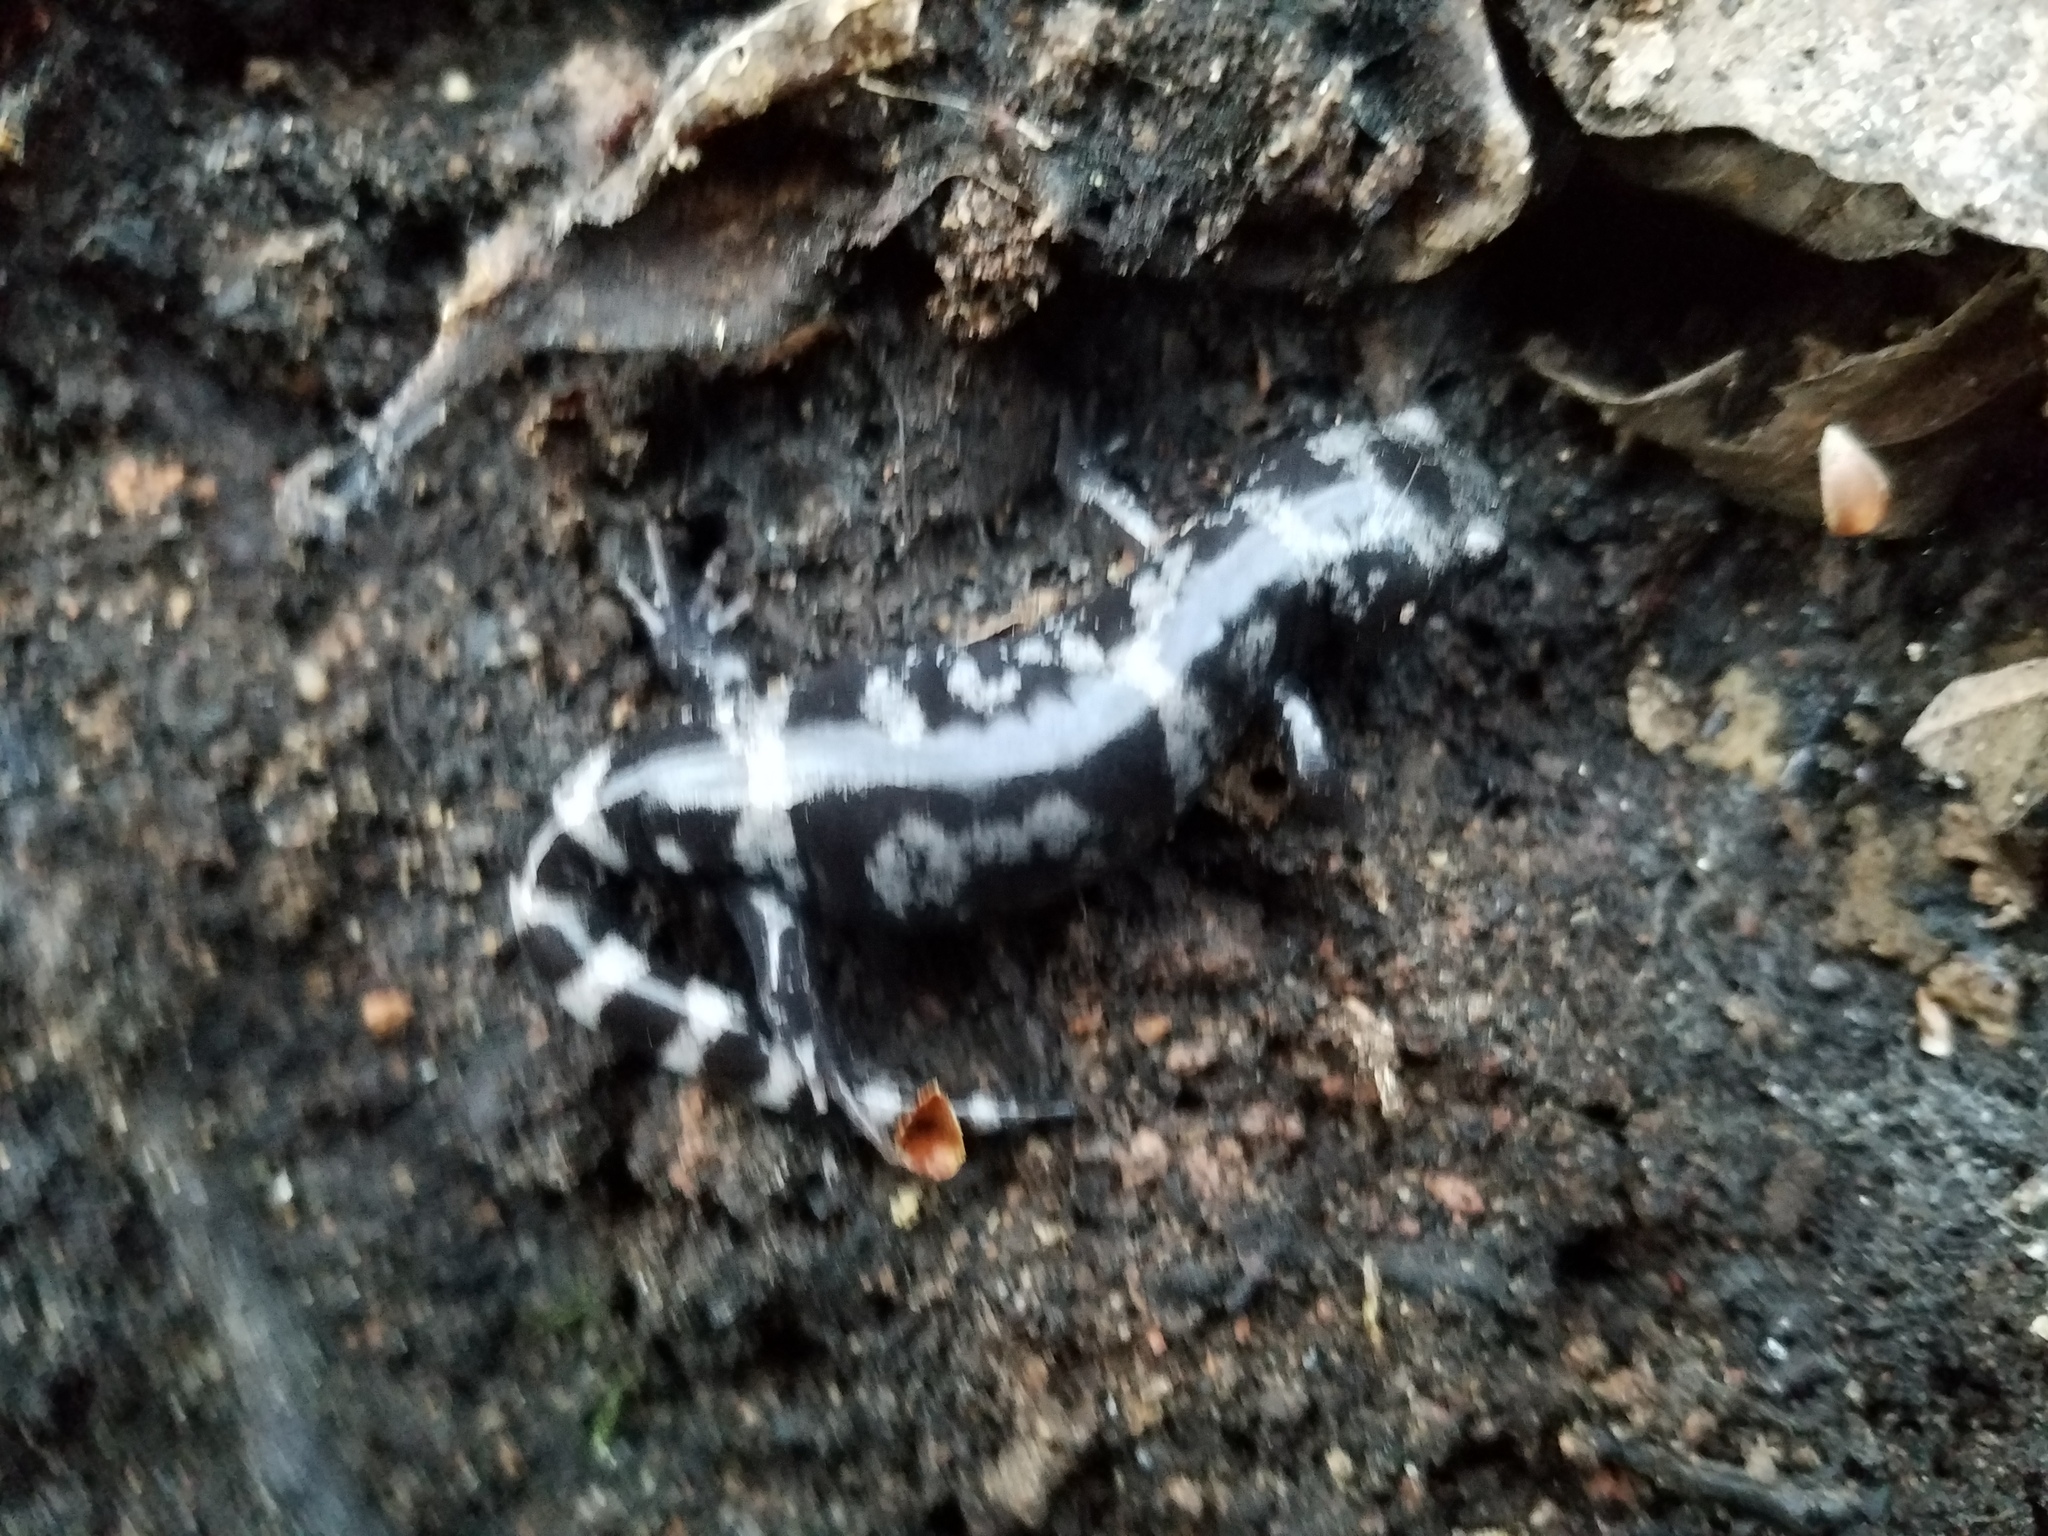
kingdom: Animalia
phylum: Chordata
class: Amphibia
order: Caudata
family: Ambystomatidae
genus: Ambystoma
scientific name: Ambystoma opacum
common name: Marbled salamander
